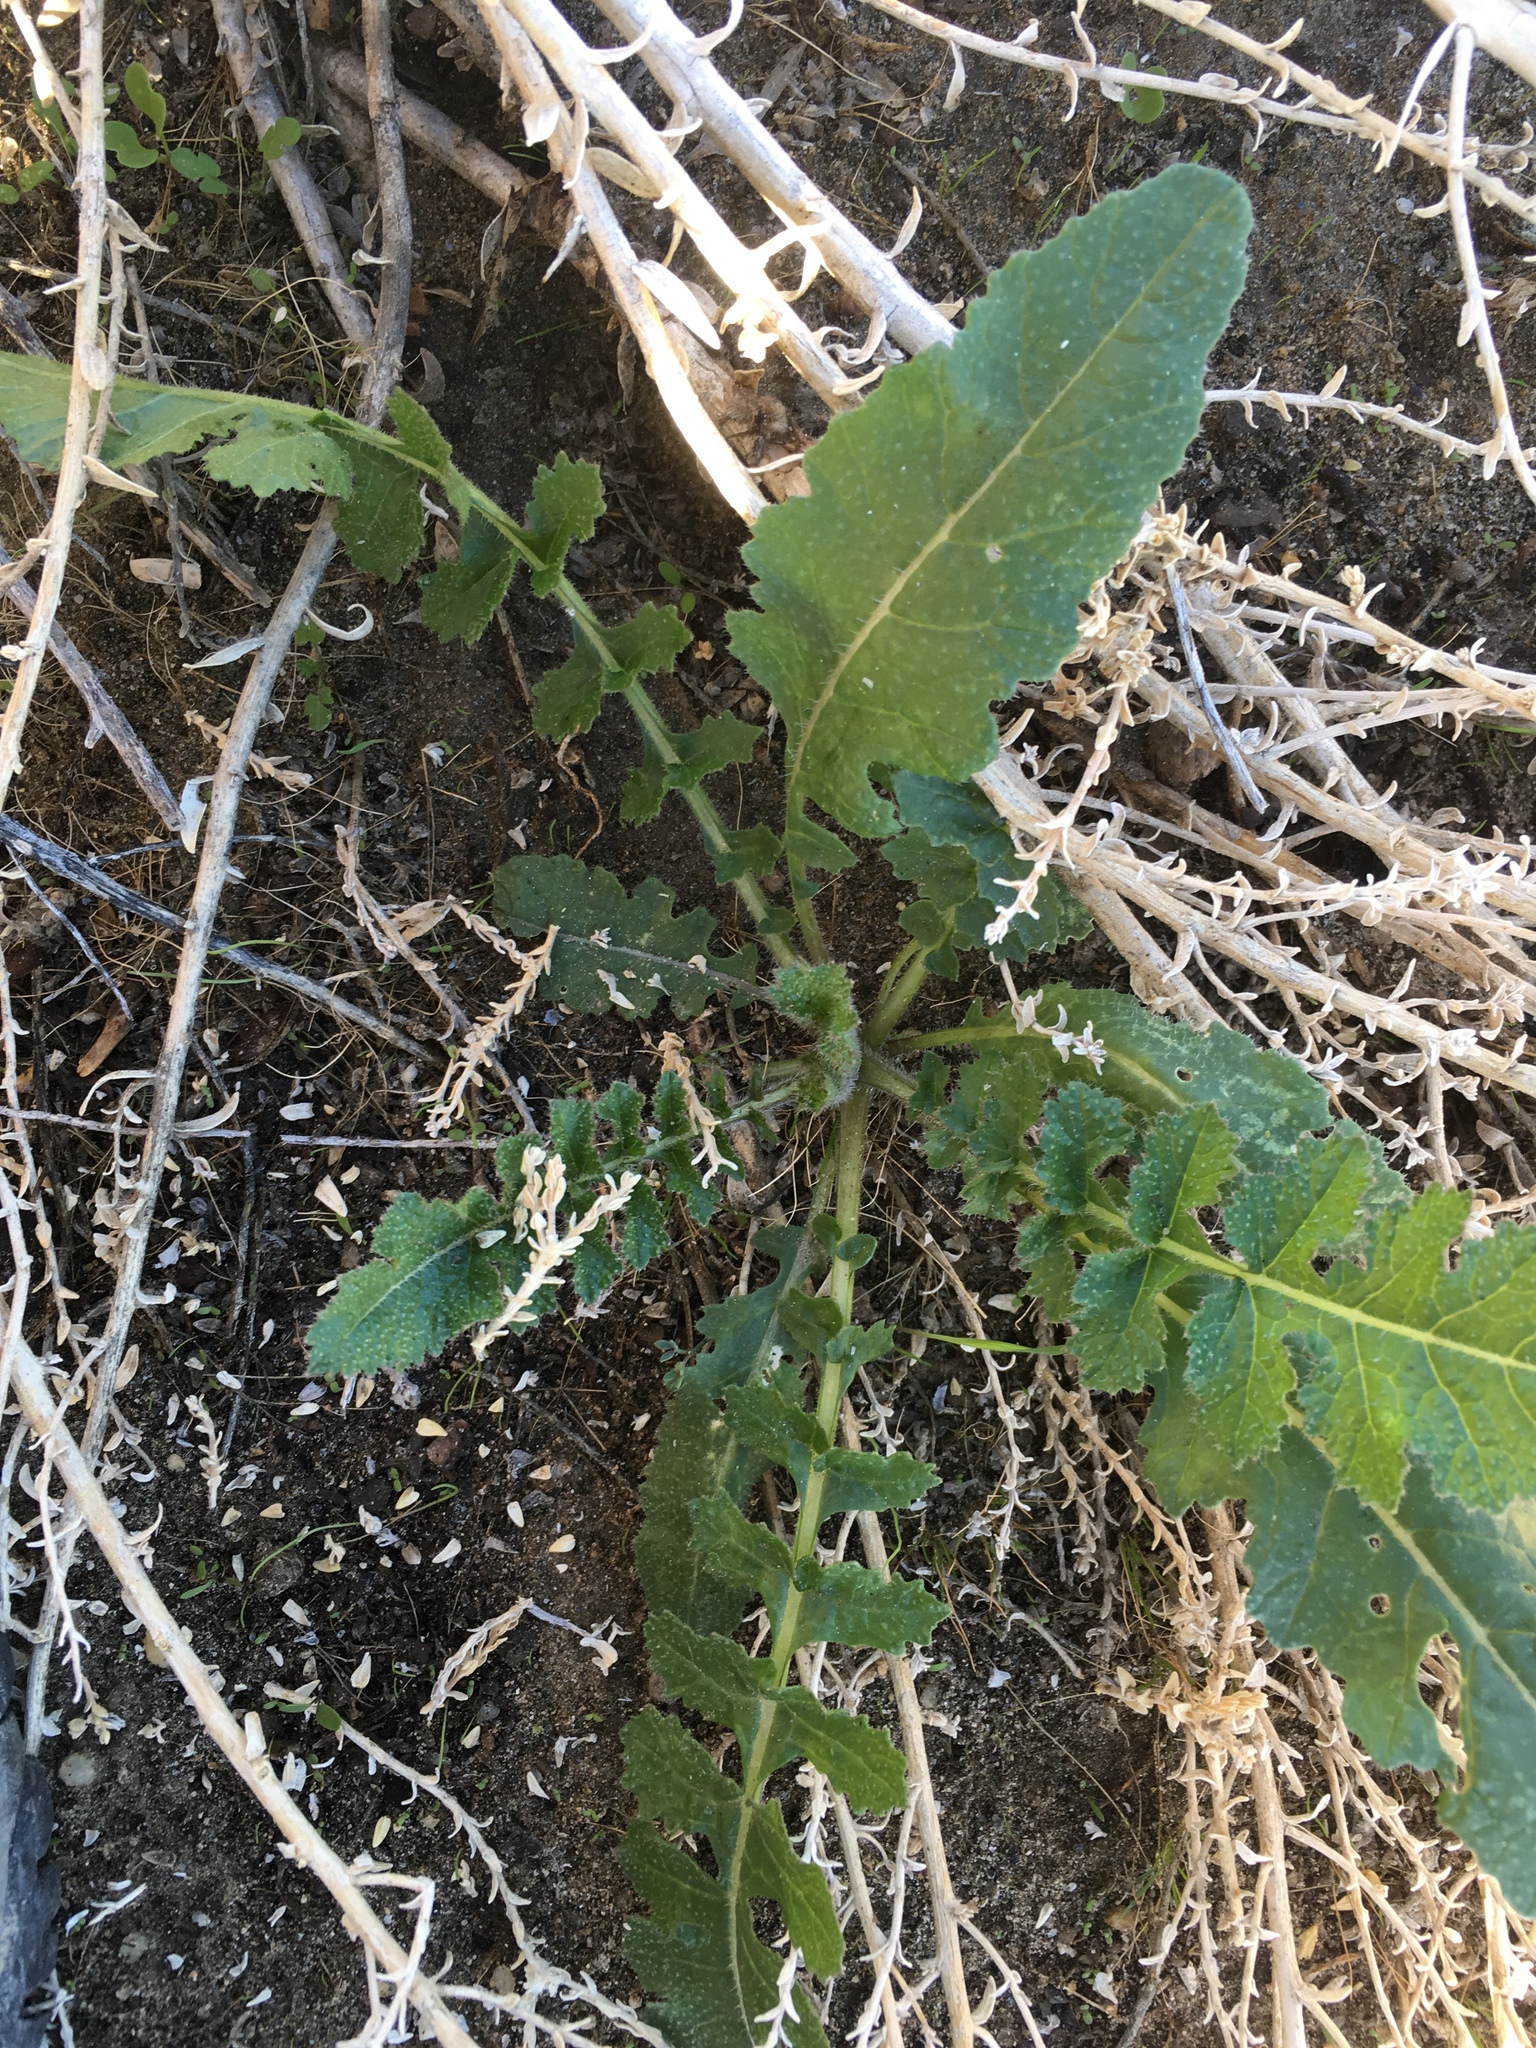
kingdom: Plantae
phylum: Tracheophyta
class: Magnoliopsida
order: Brassicales
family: Brassicaceae
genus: Brassica
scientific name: Brassica tournefortii
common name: Pale cabbage
